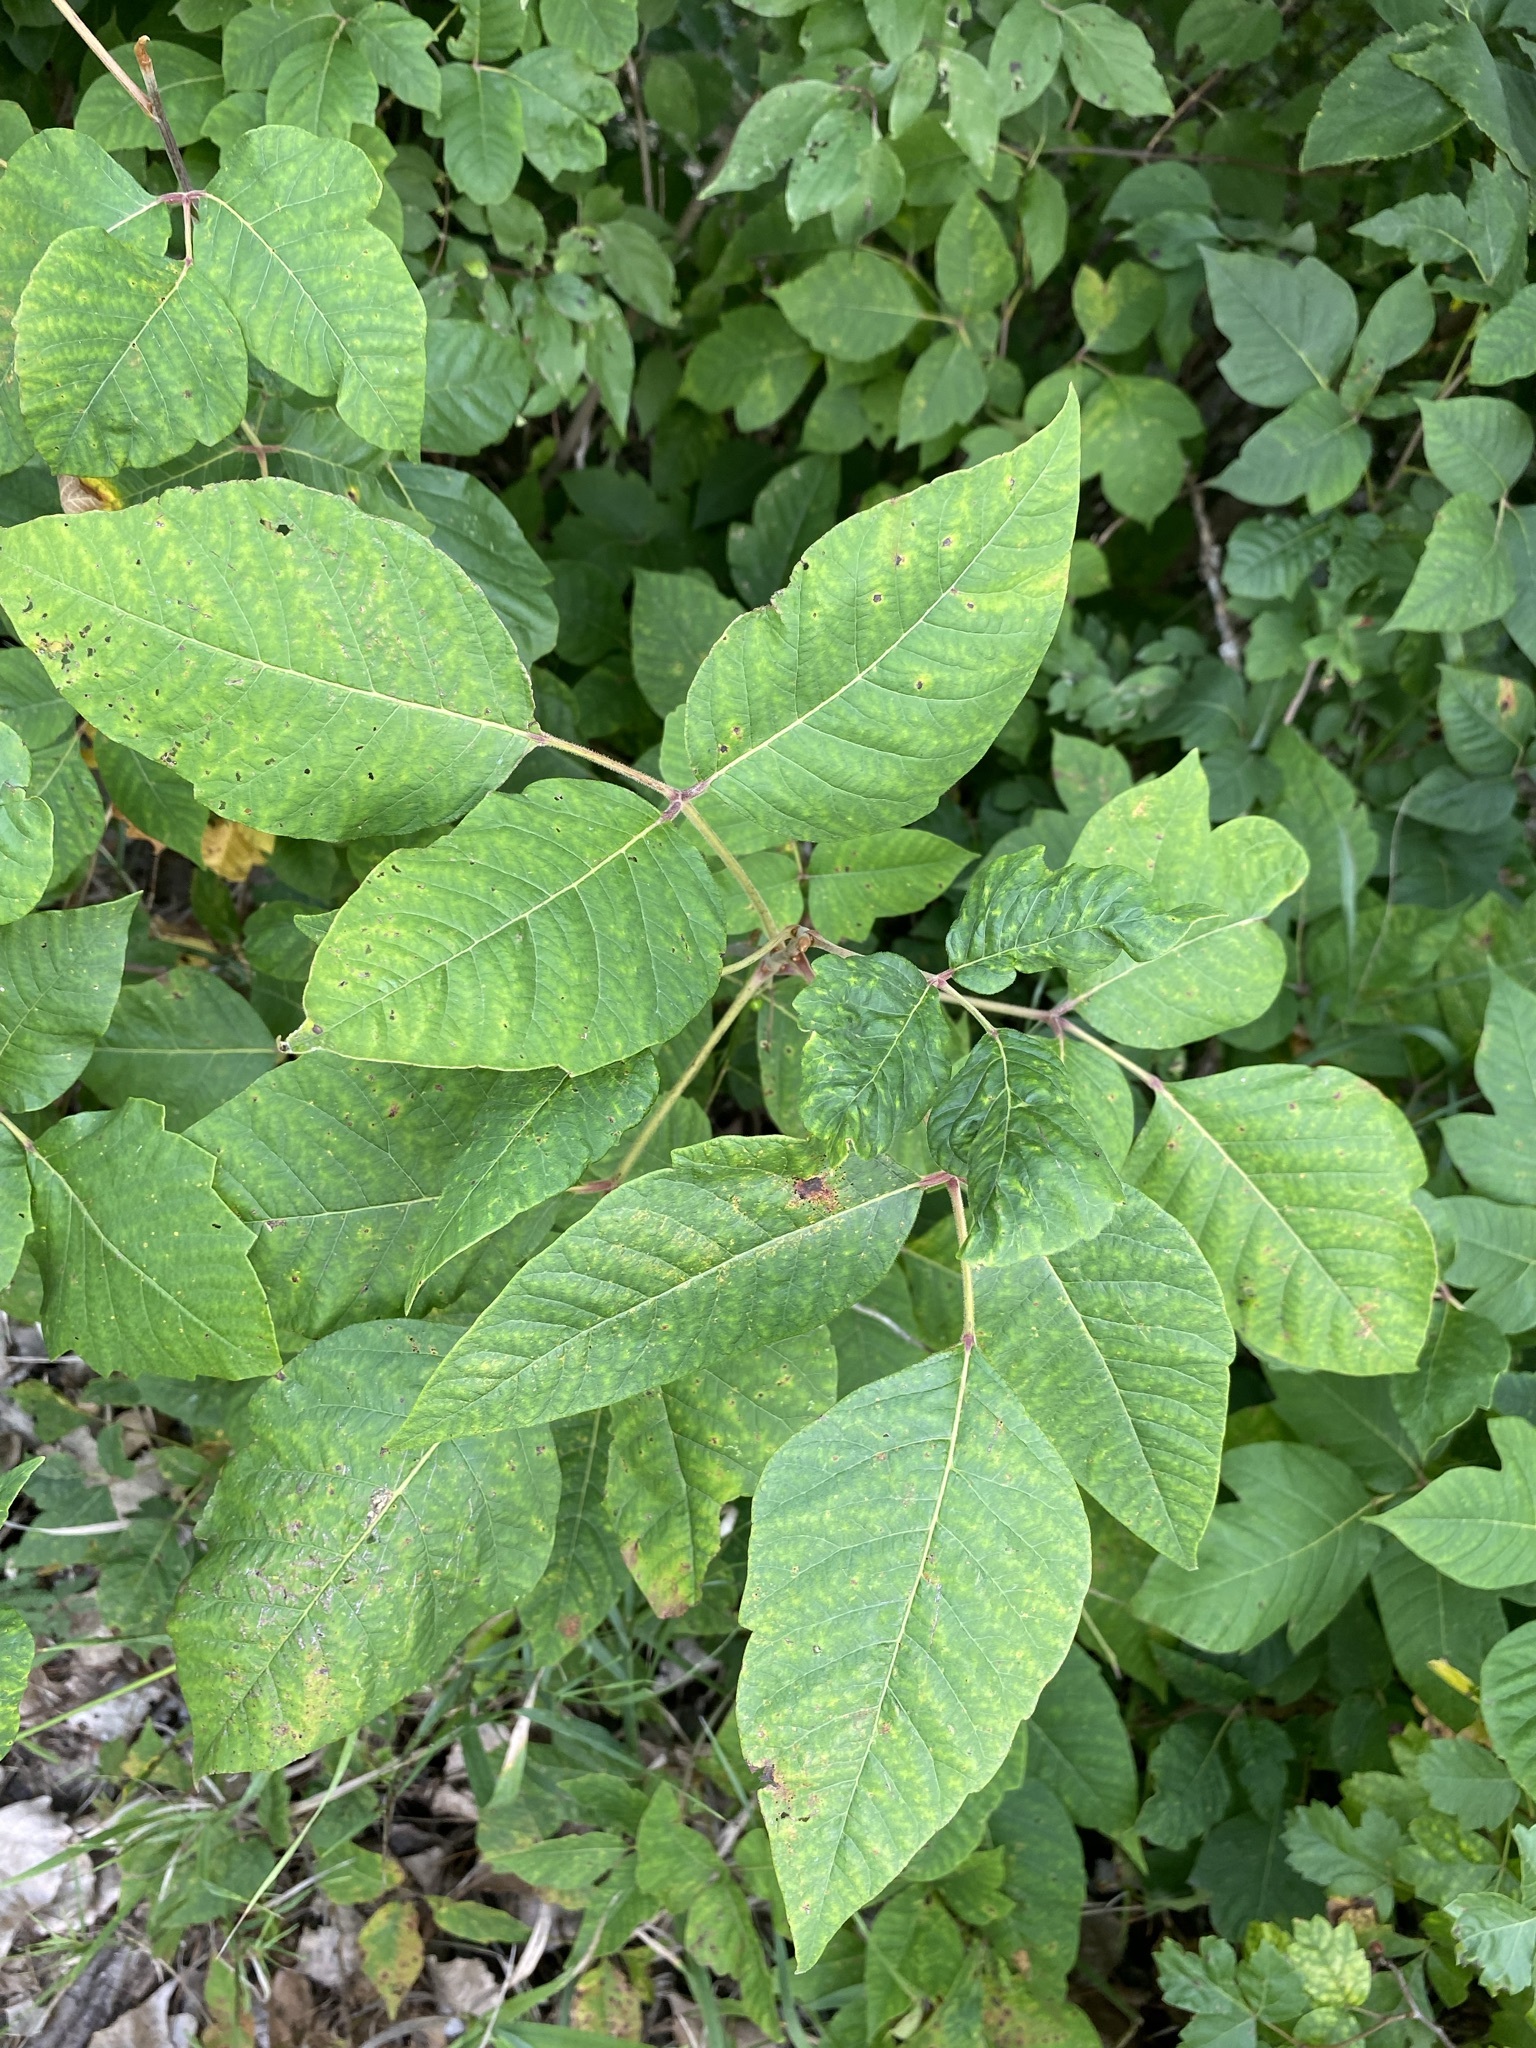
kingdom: Plantae
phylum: Tracheophyta
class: Magnoliopsida
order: Sapindales
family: Anacardiaceae
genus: Toxicodendron
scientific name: Toxicodendron radicans
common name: Poison ivy
